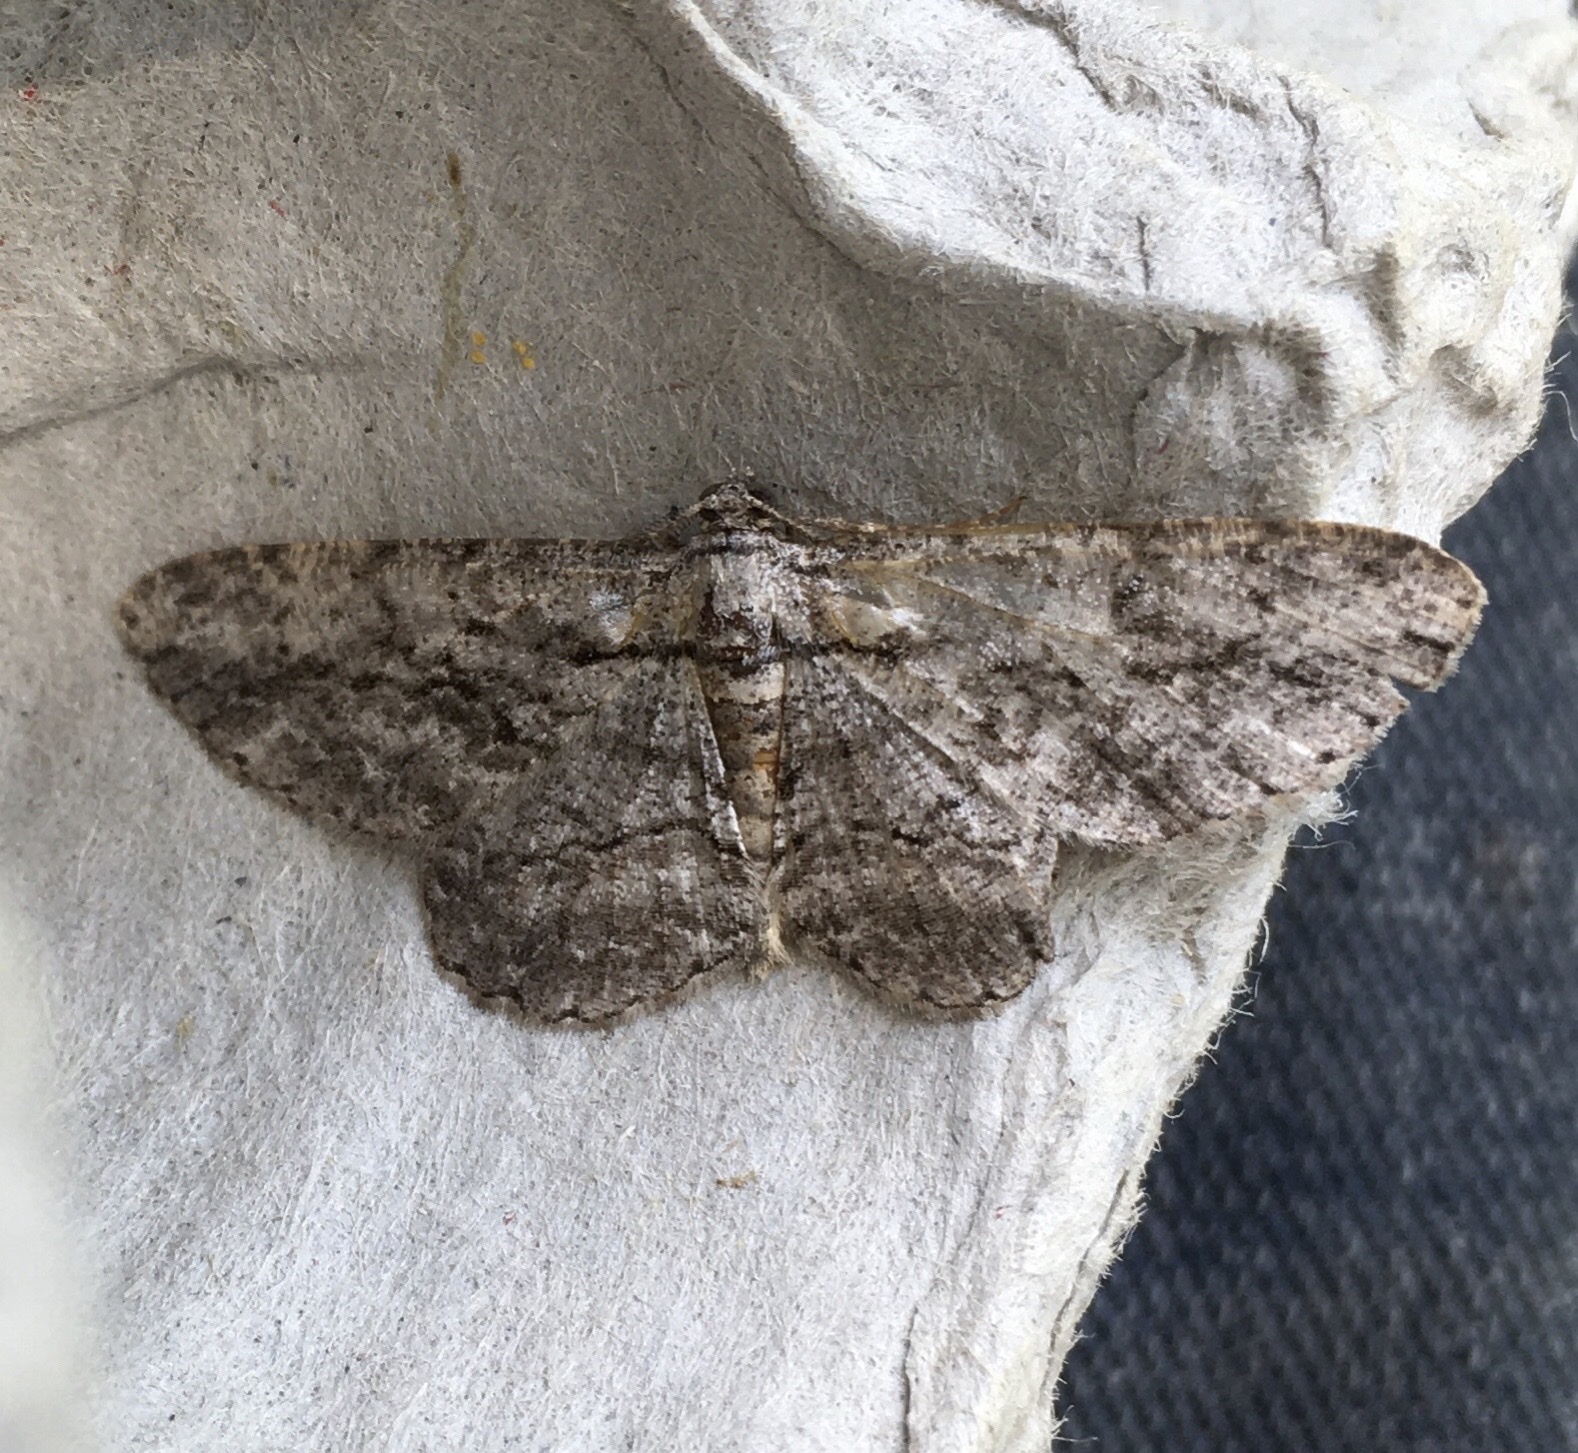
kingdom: Animalia
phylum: Arthropoda
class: Insecta
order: Lepidoptera
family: Geometridae
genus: Anavitrinella
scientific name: Anavitrinella pampinaria
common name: Common gray
